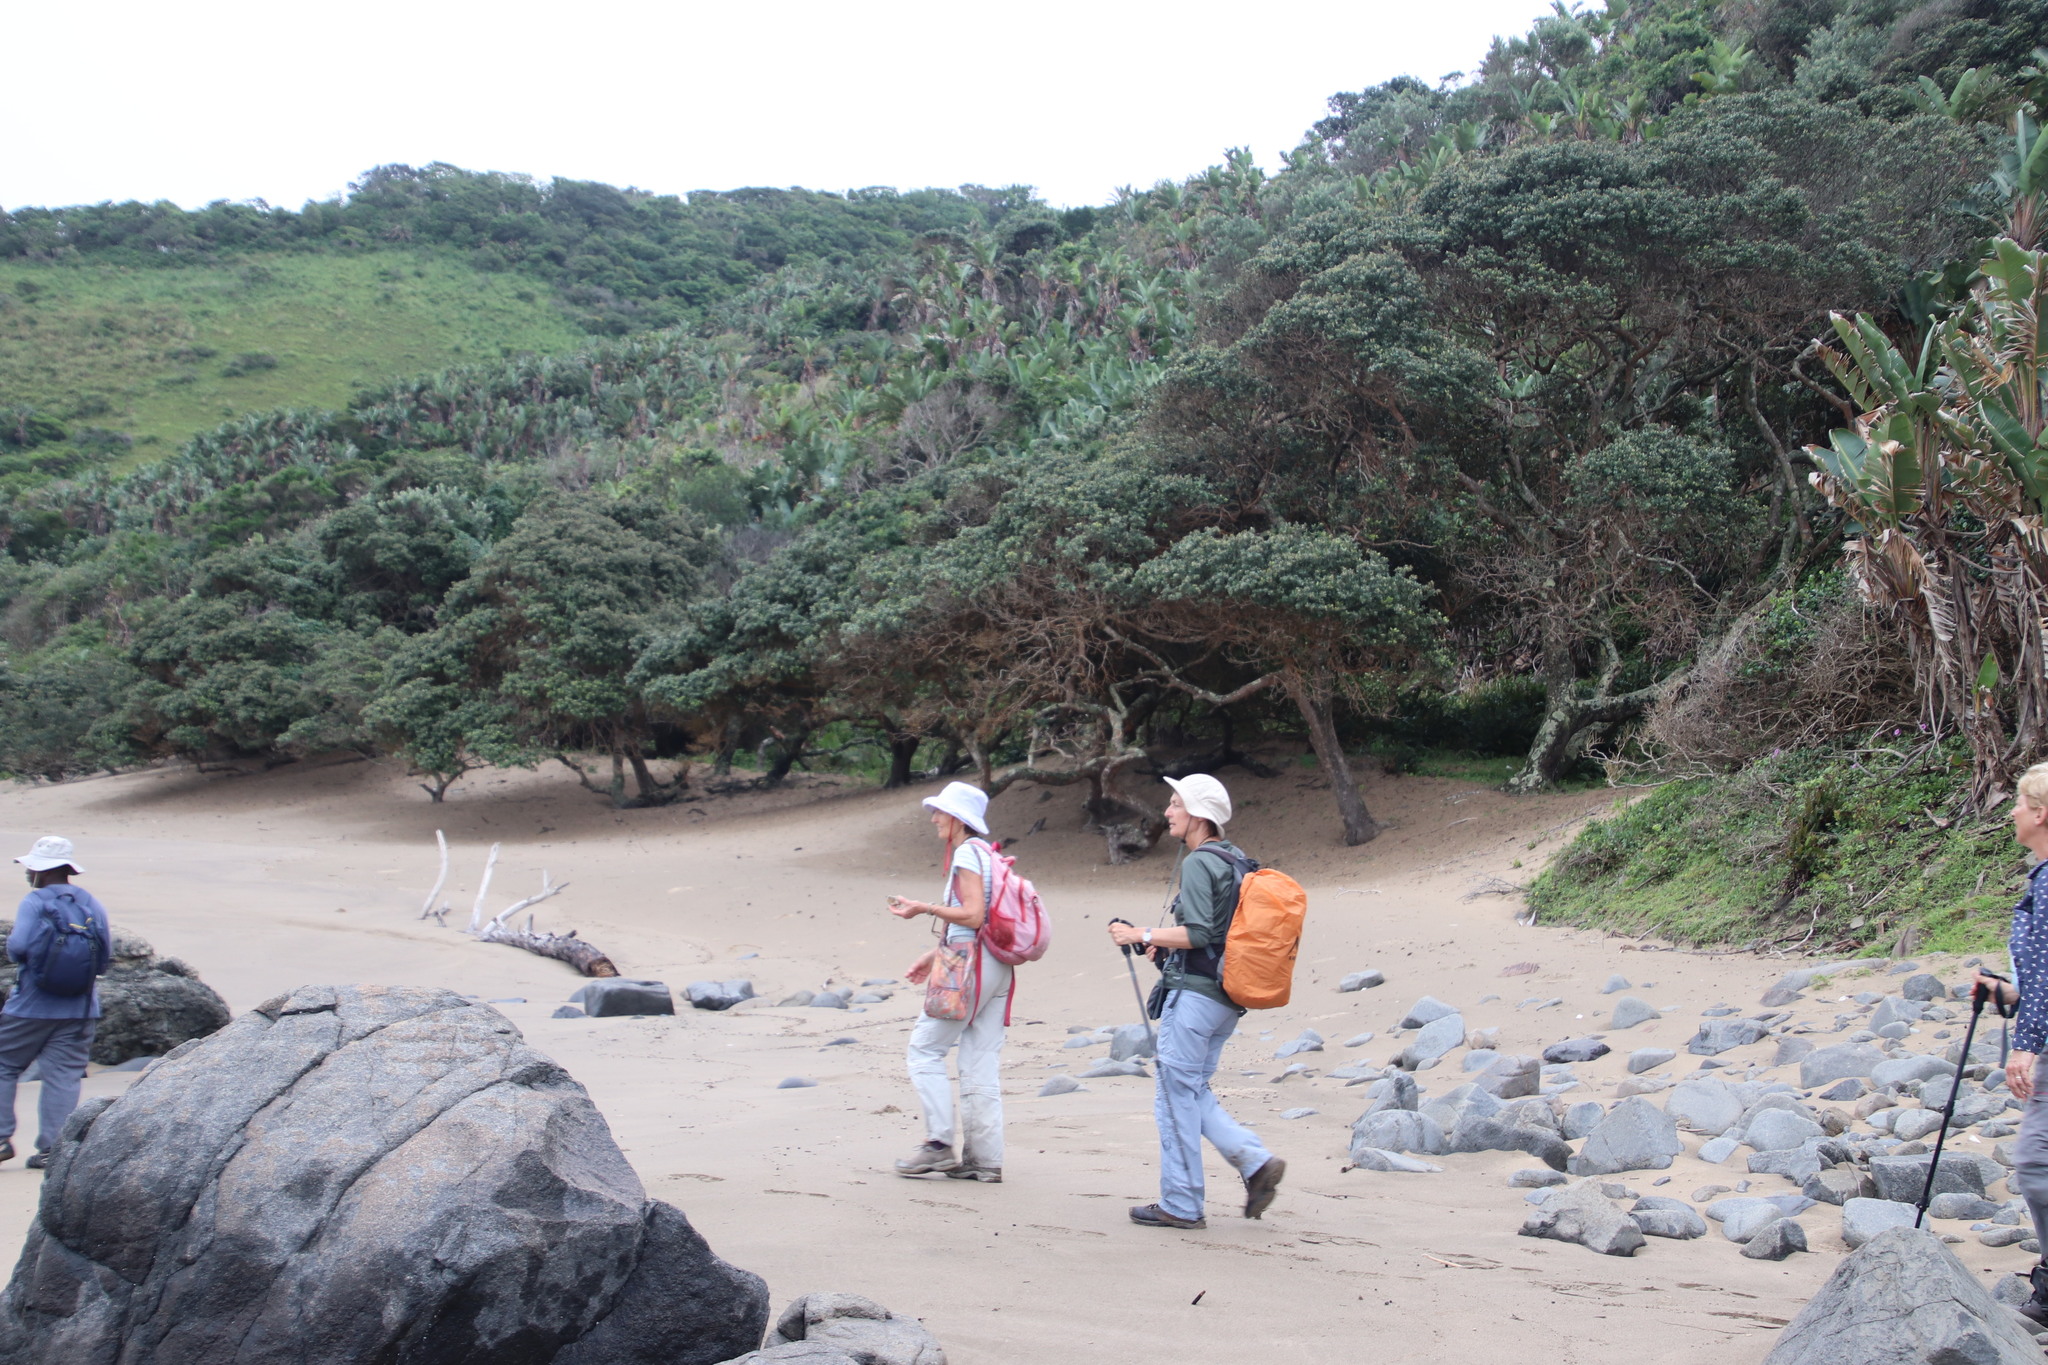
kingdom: Plantae
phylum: Tracheophyta
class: Magnoliopsida
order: Ericales
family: Sapotaceae
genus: Mimusops
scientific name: Mimusops caffra
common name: Coastal red milkwood
